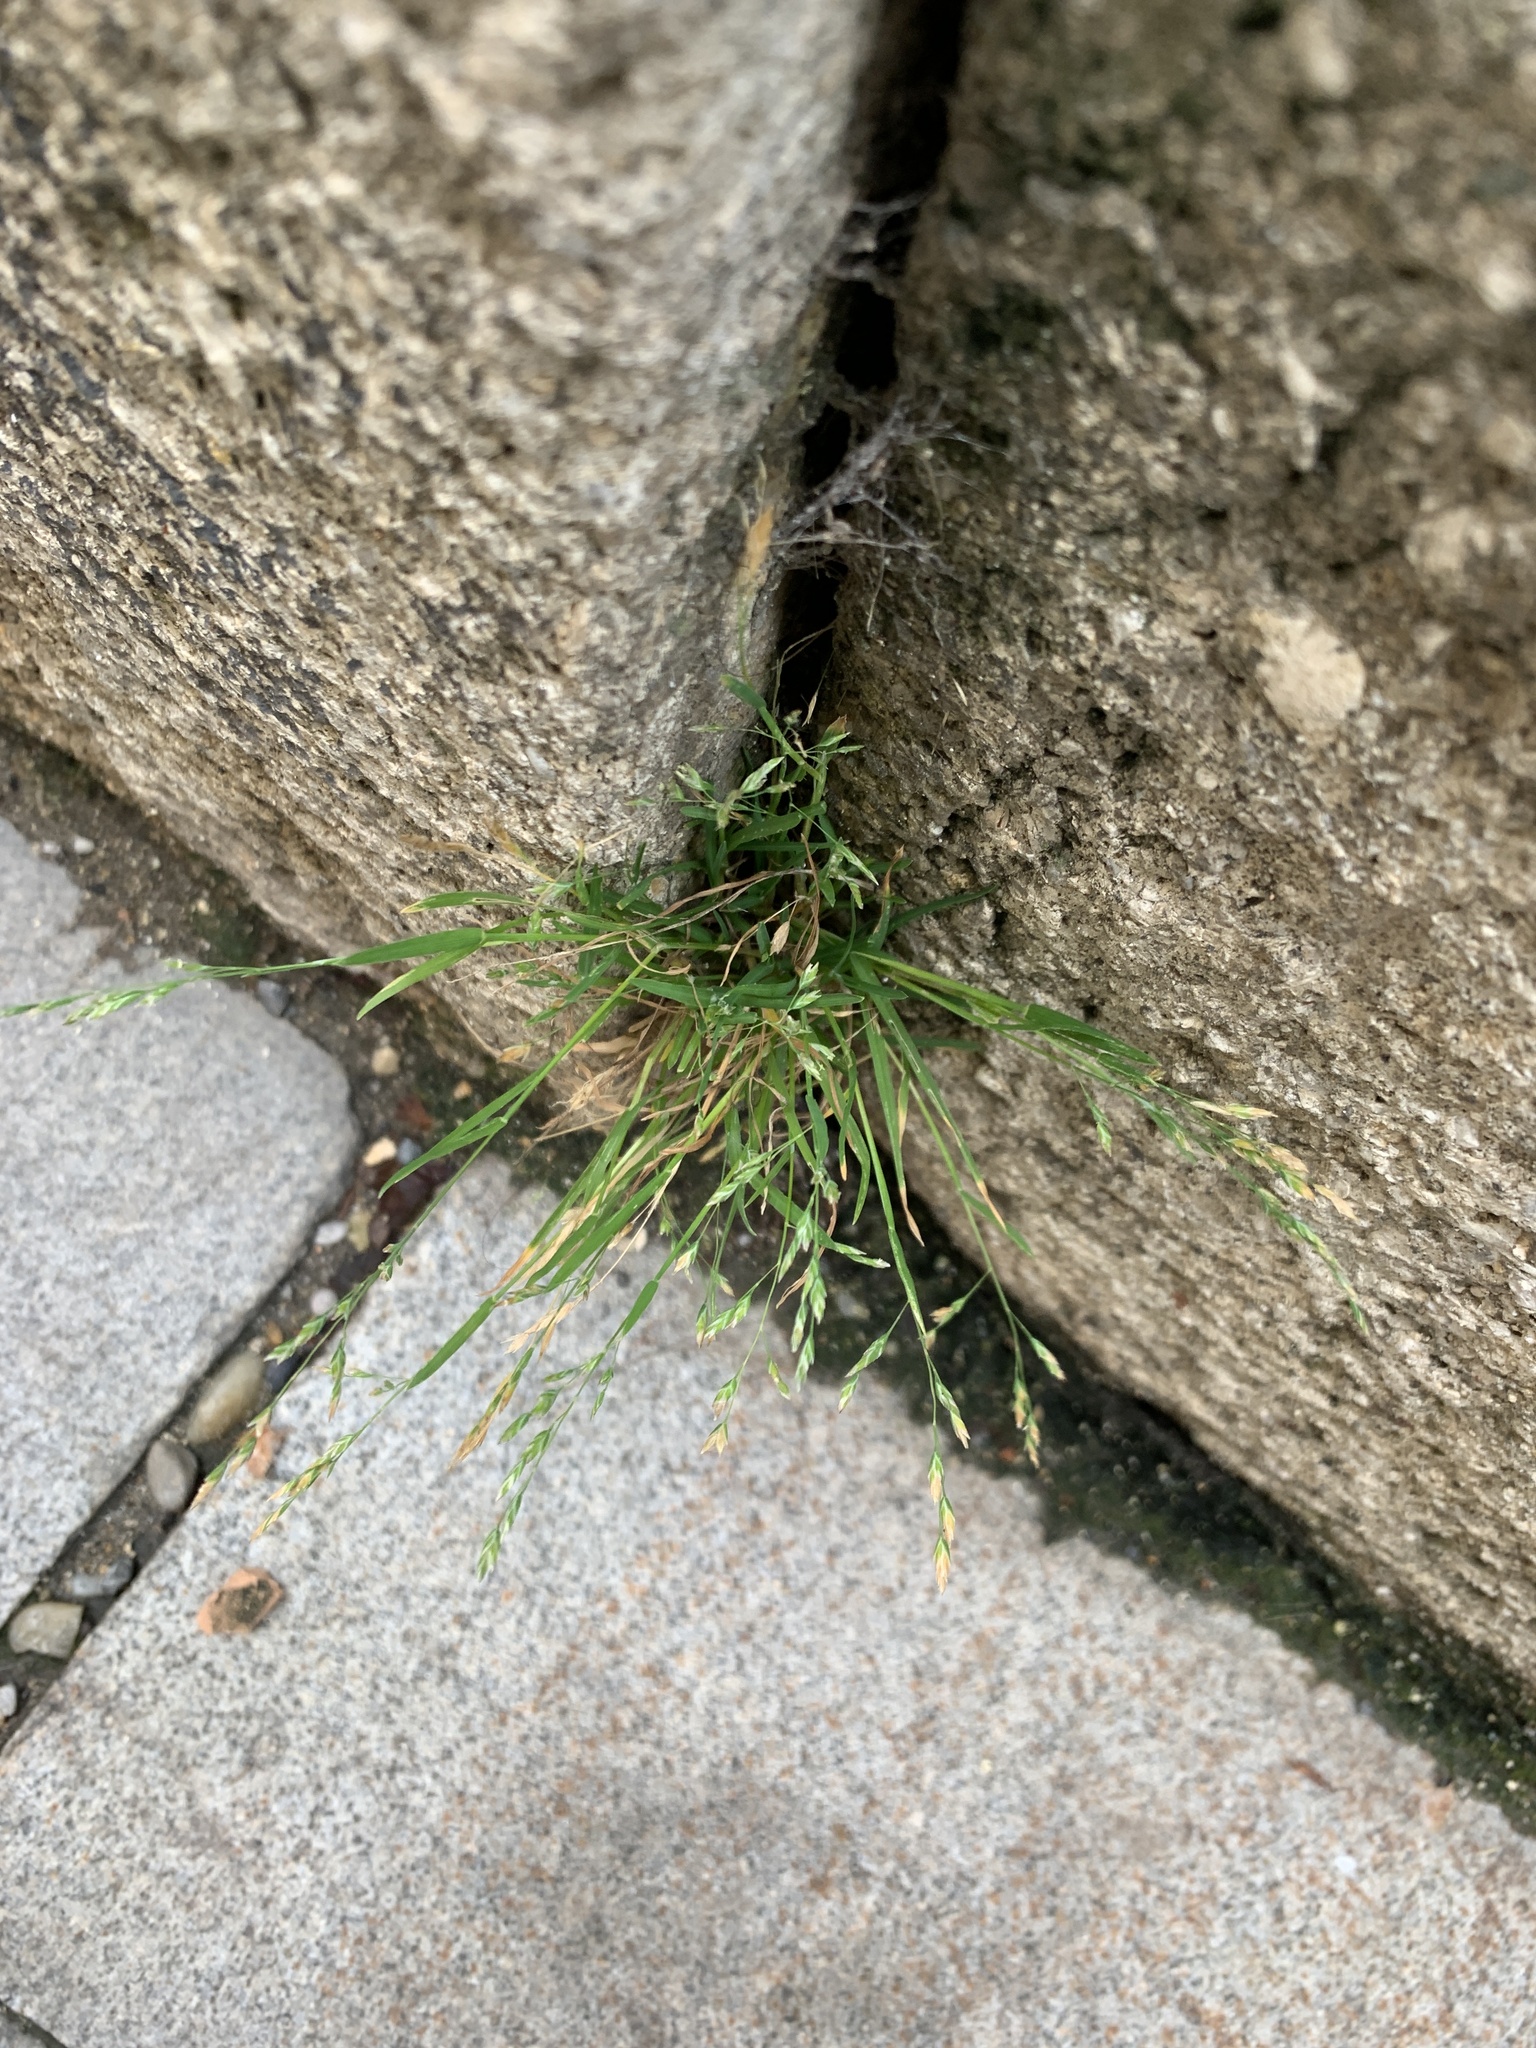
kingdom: Plantae
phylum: Tracheophyta
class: Liliopsida
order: Poales
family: Poaceae
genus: Poa
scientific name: Poa annua
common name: Annual bluegrass
